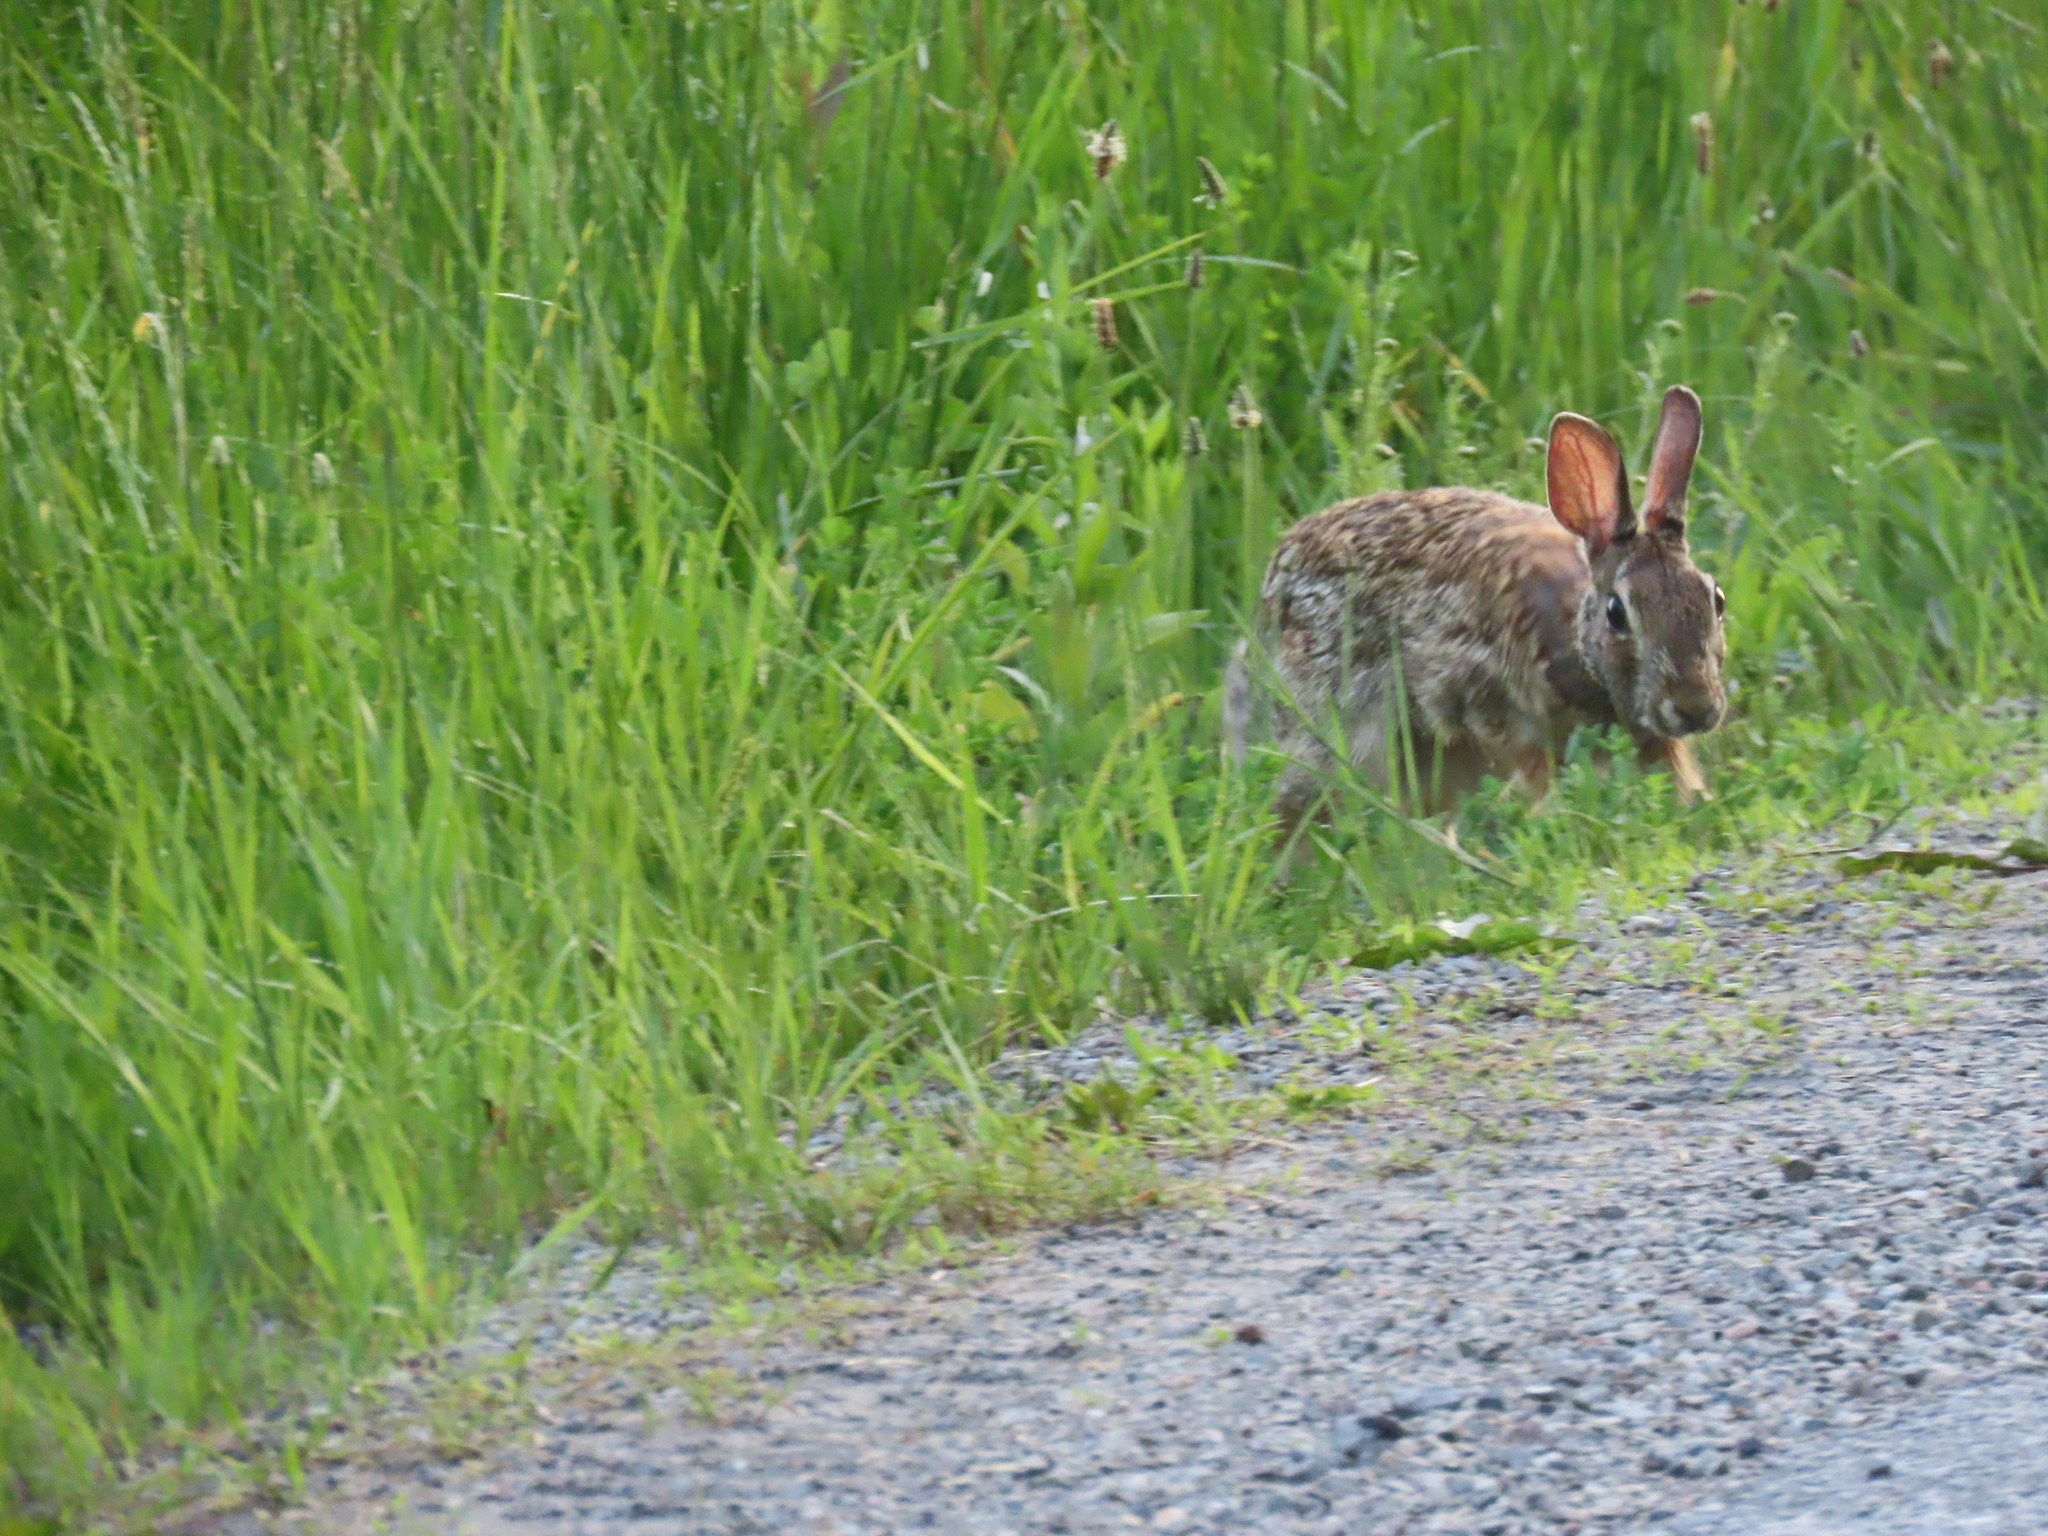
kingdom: Animalia
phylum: Chordata
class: Mammalia
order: Lagomorpha
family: Leporidae
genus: Sylvilagus
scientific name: Sylvilagus floridanus
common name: Eastern cottontail
